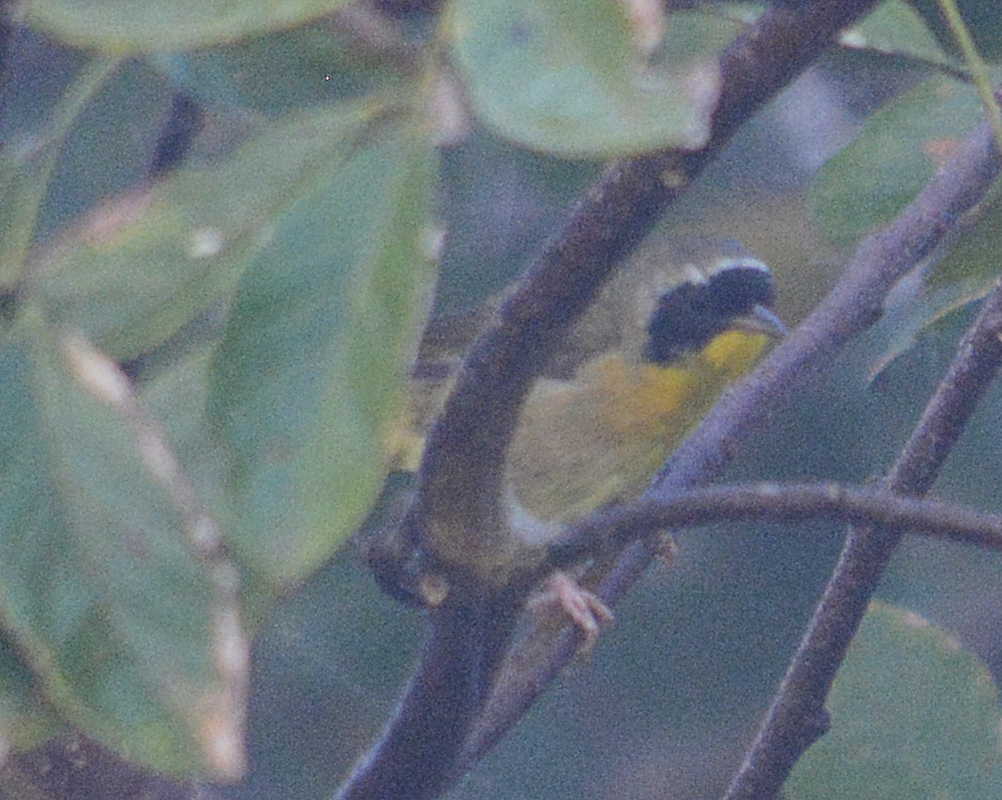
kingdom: Animalia
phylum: Chordata
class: Aves
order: Passeriformes
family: Parulidae
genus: Geothlypis
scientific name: Geothlypis trichas
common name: Common yellowthroat
